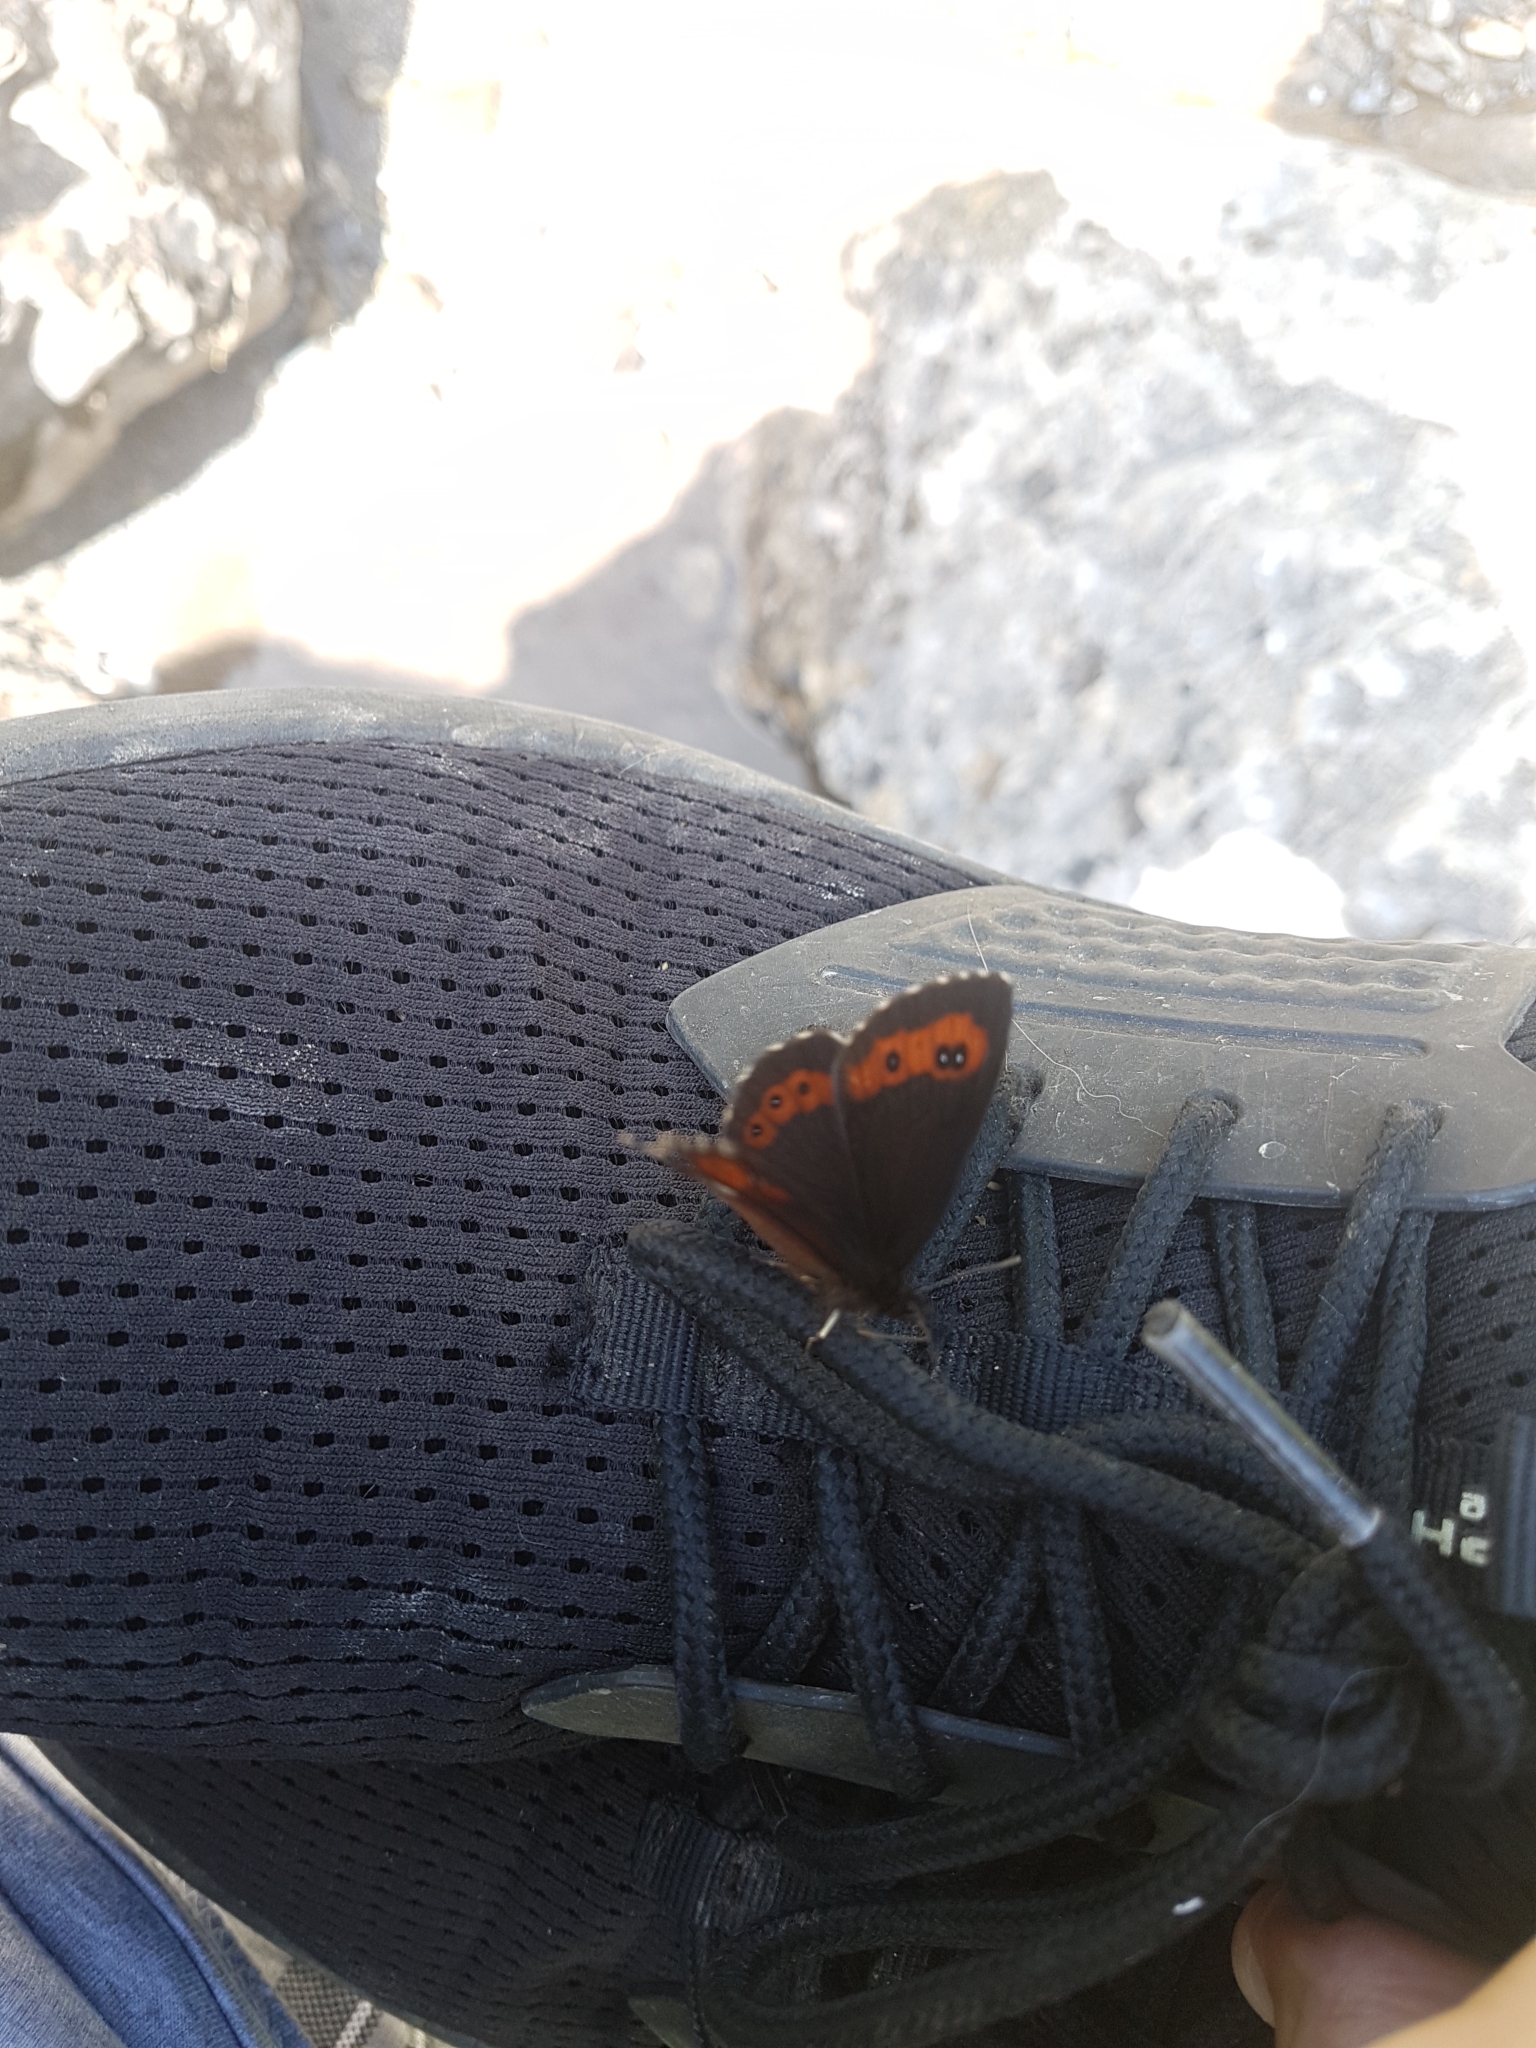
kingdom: Animalia
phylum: Arthropoda
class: Insecta
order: Lepidoptera
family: Nymphalidae
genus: Erebia
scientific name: Erebia euryale
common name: Large ringlet
